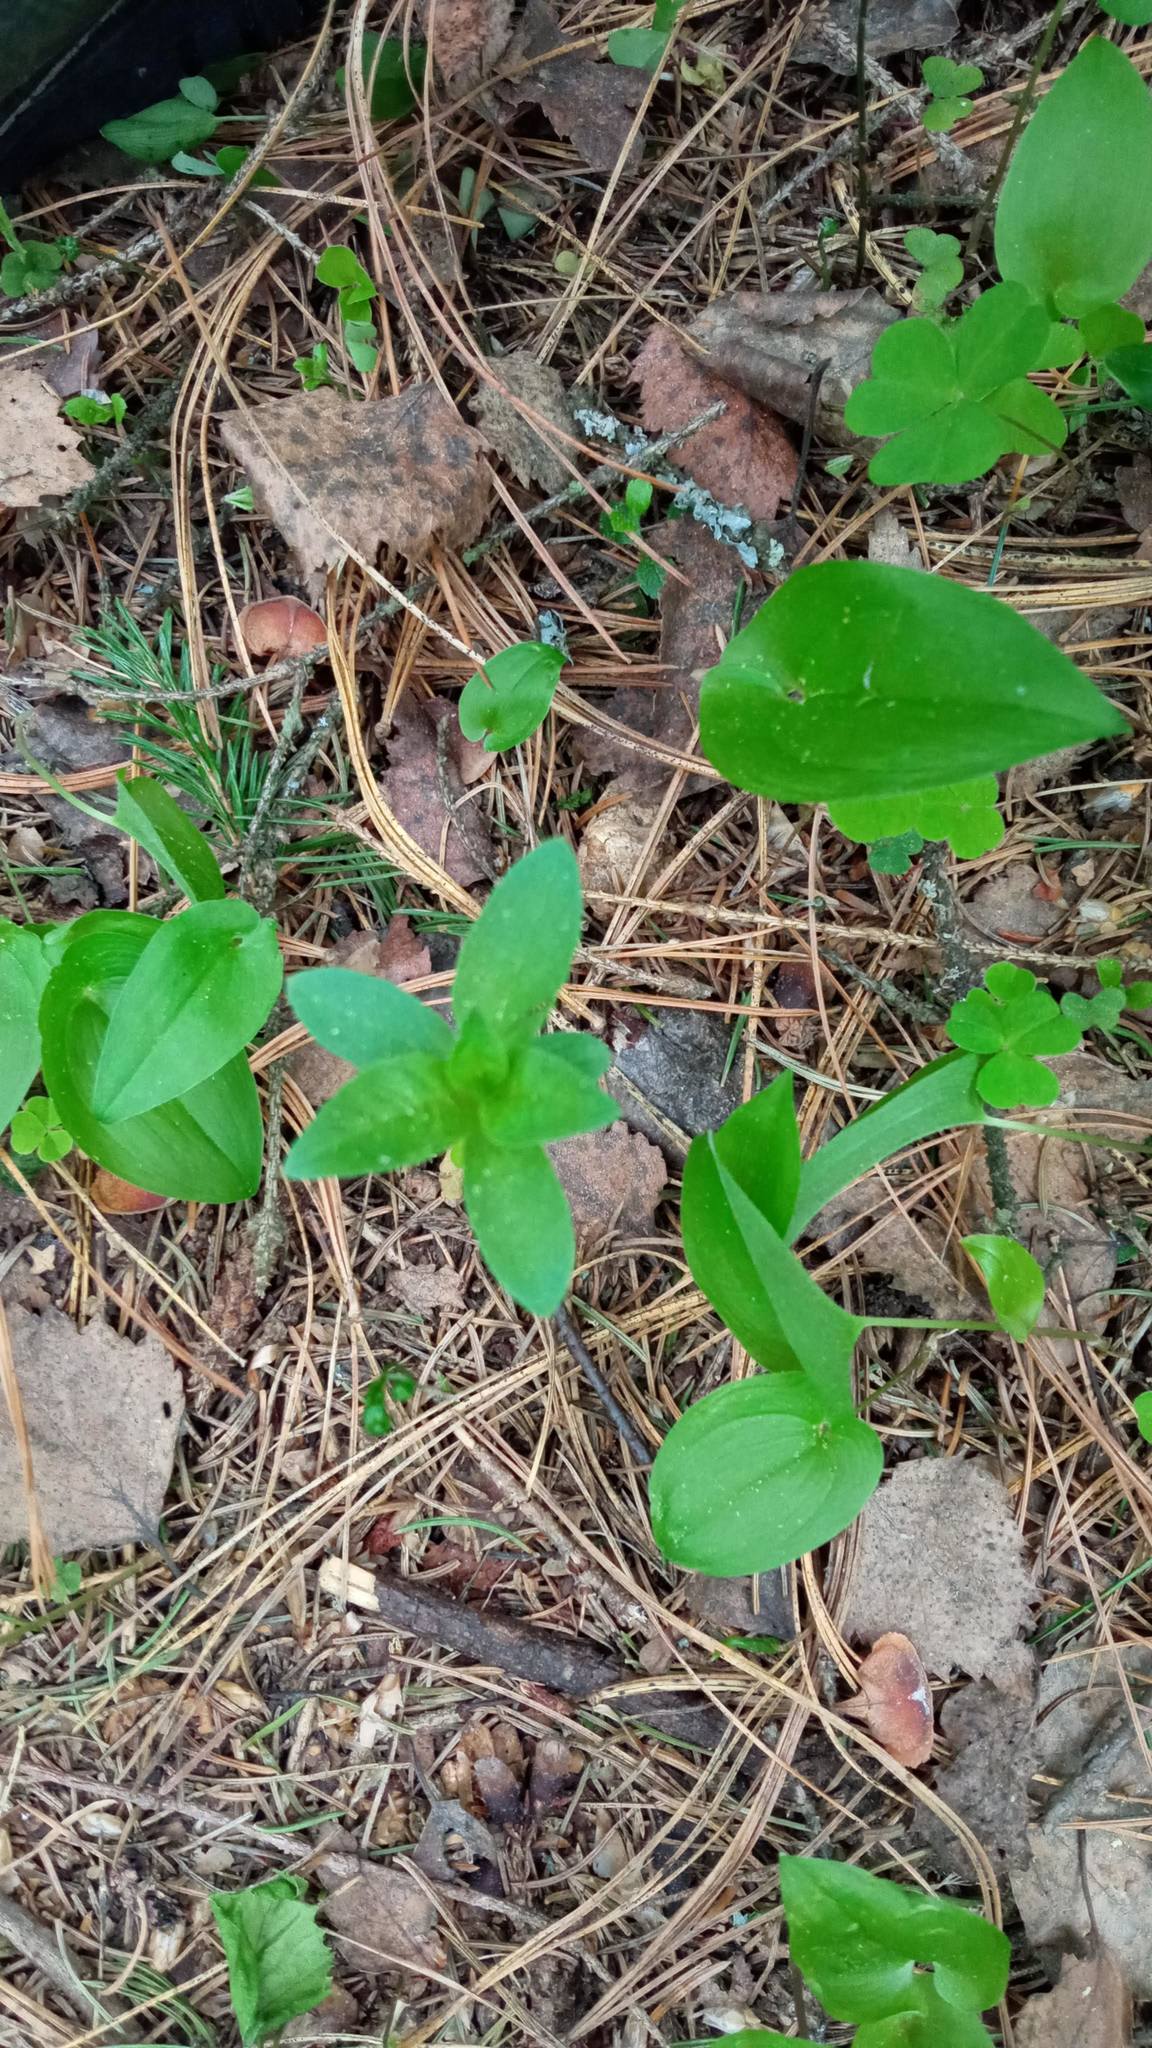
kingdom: Plantae
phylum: Tracheophyta
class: Magnoliopsida
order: Ericales
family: Primulaceae
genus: Lysimachia
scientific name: Lysimachia europaea
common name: Arctic starflower
